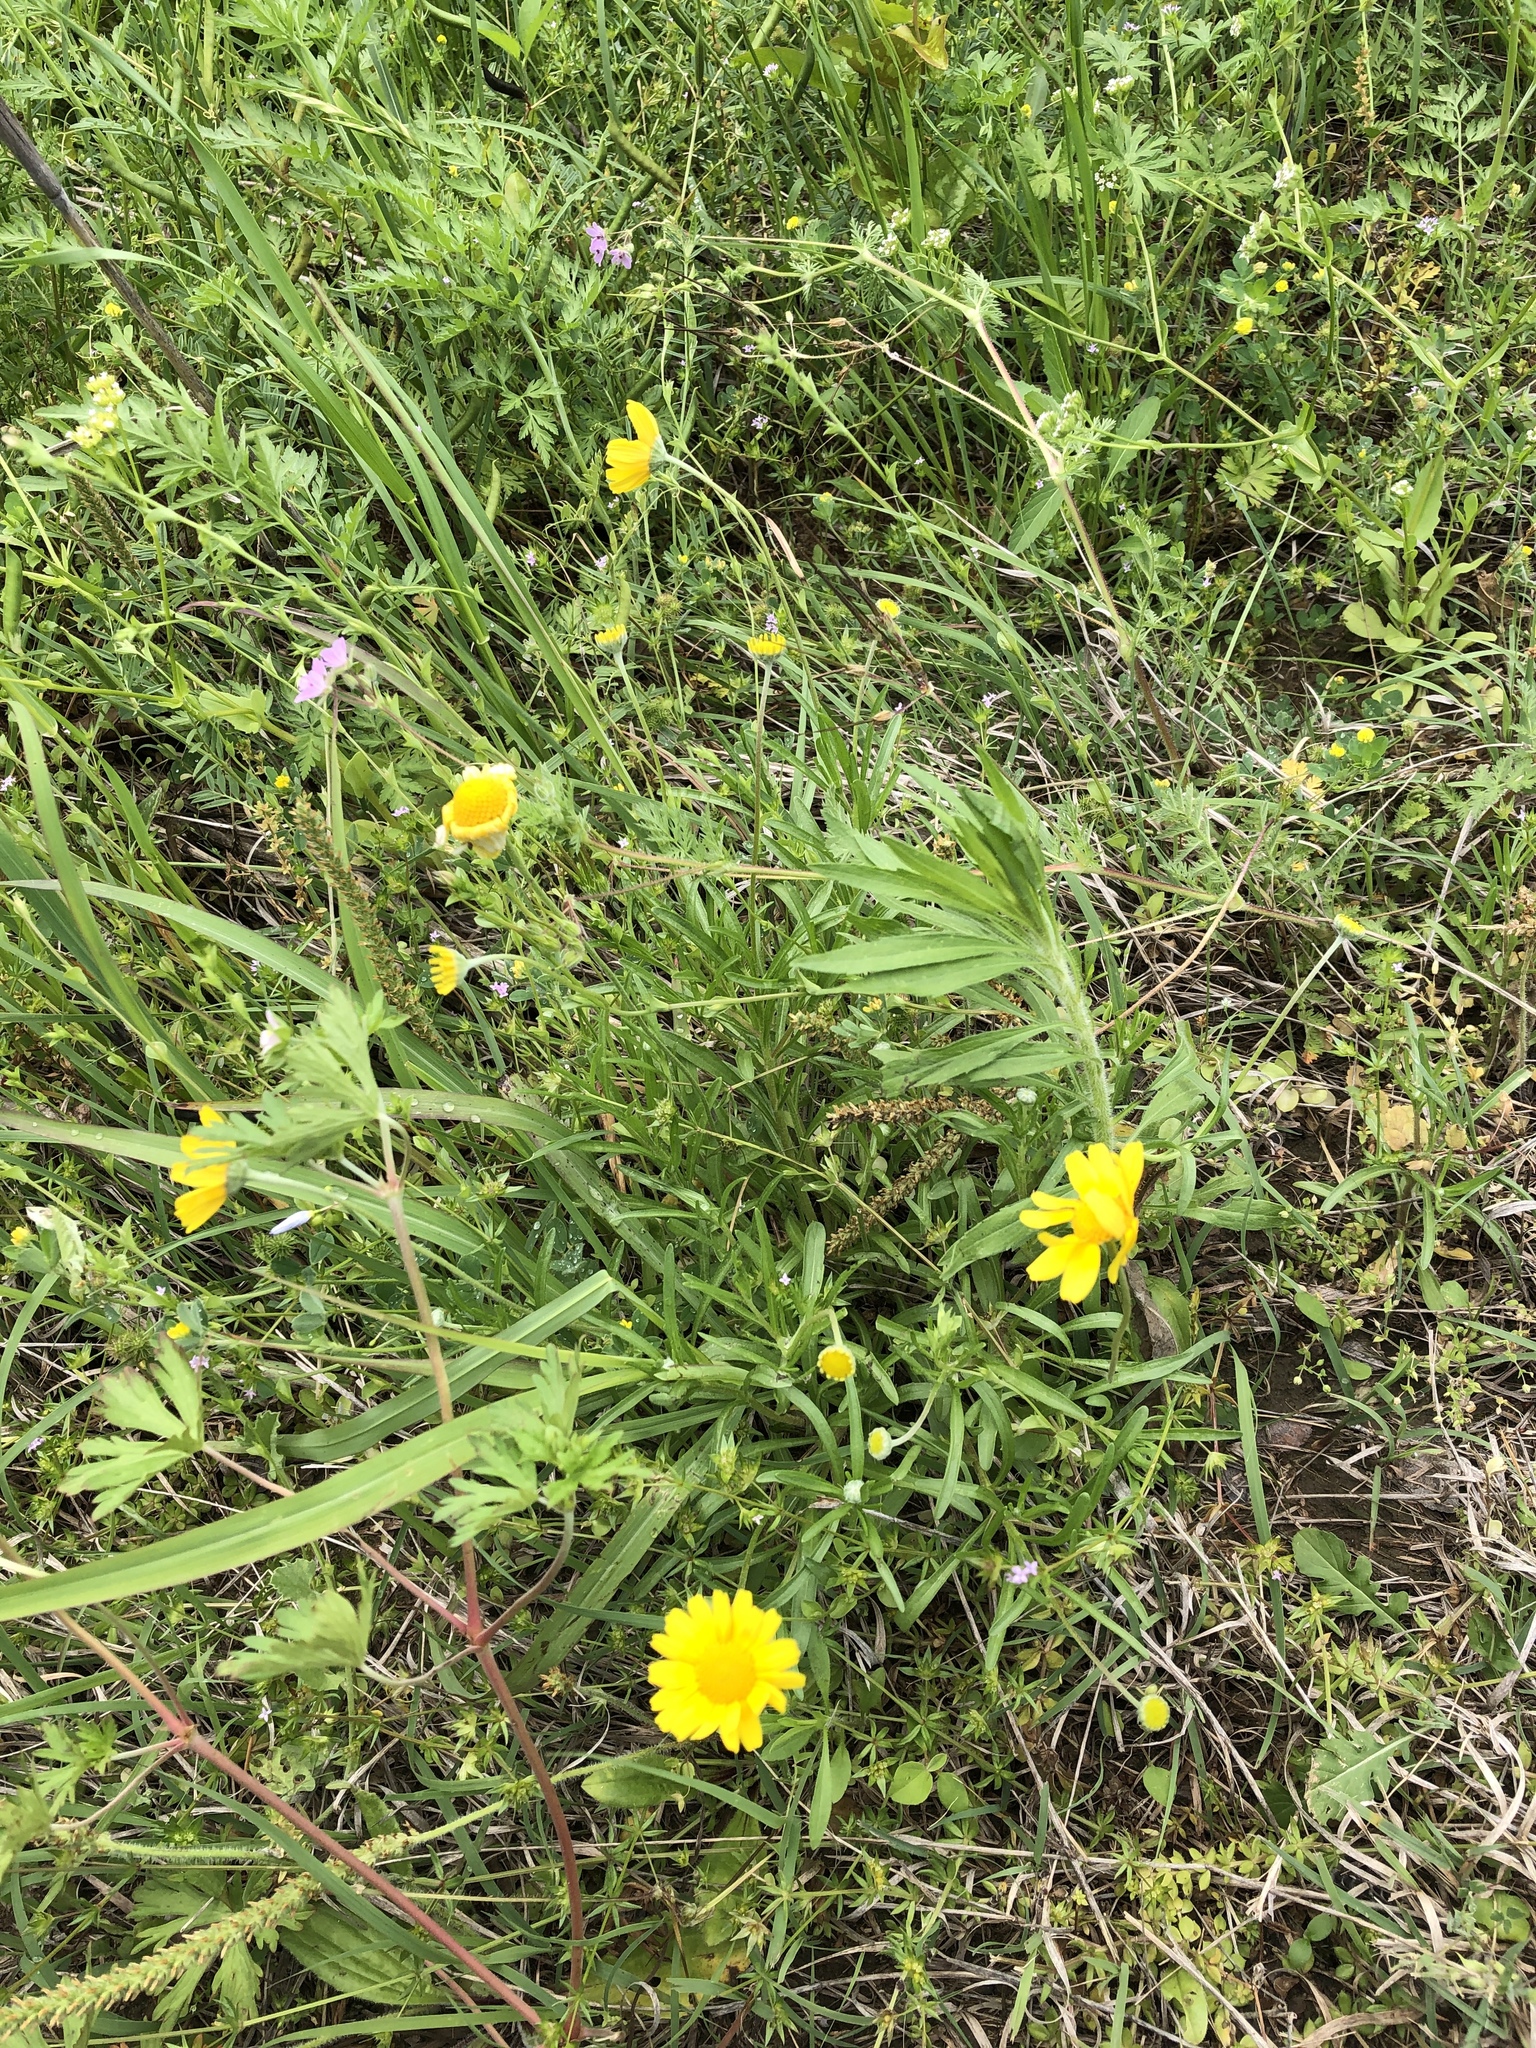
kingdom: Plantae
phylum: Tracheophyta
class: Magnoliopsida
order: Asterales
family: Asteraceae
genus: Tetraneuris
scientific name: Tetraneuris scaposa
